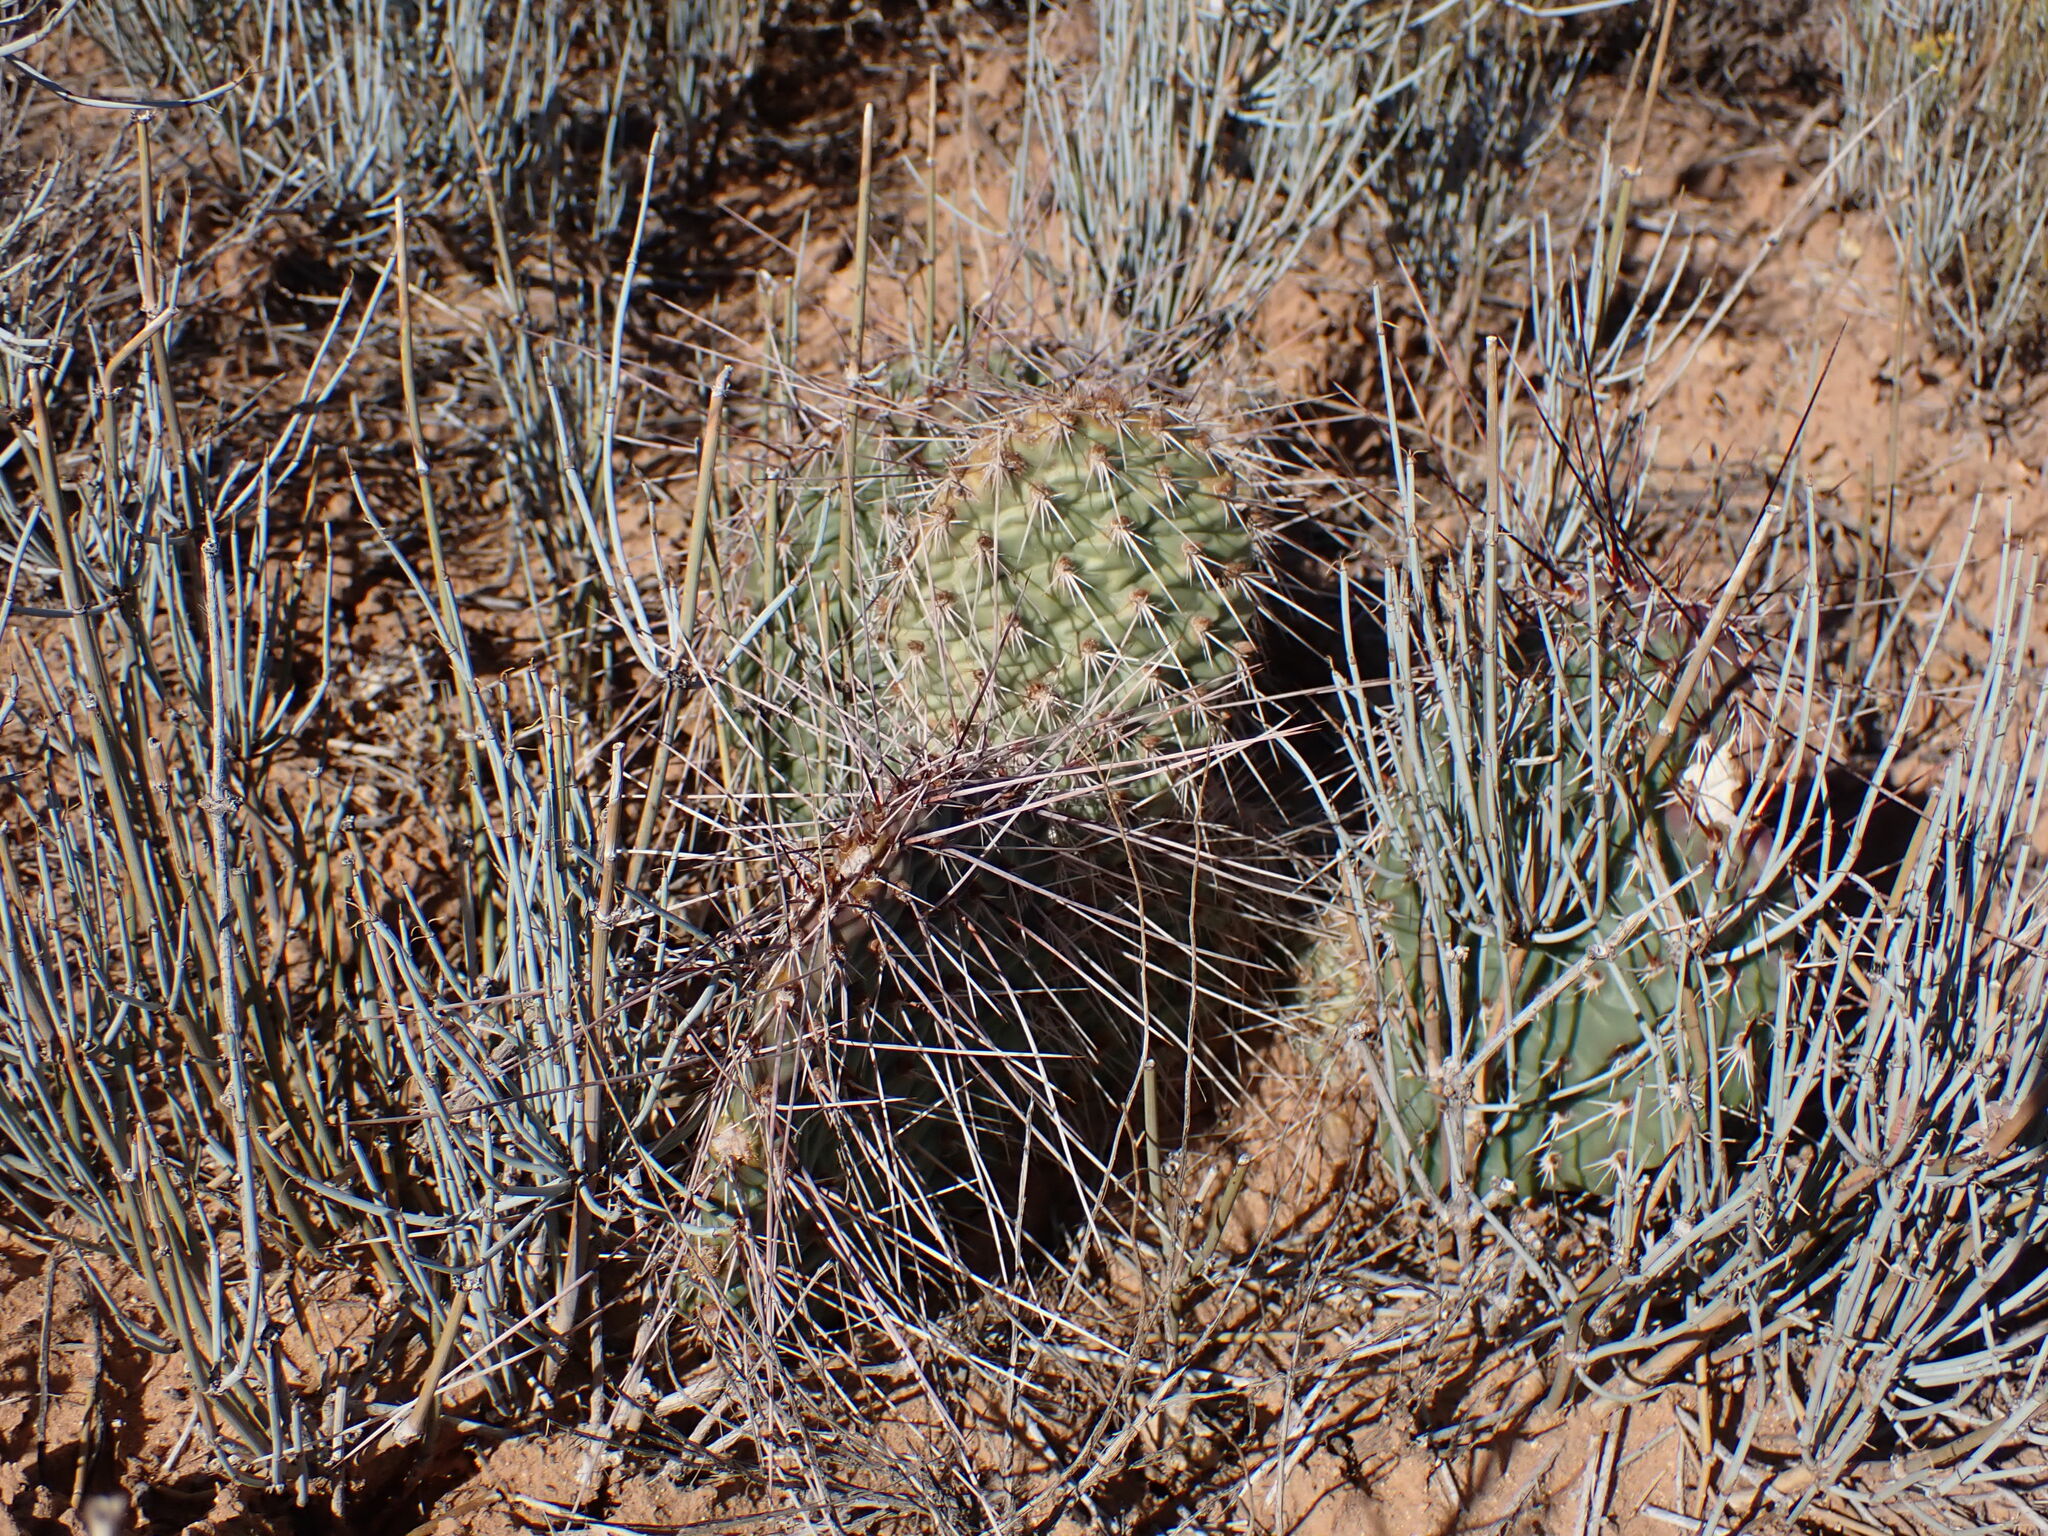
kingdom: Plantae
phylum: Tracheophyta
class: Magnoliopsida
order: Caryophyllales
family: Cactaceae
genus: Opuntia
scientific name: Opuntia polyacantha
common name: Plains prickly-pear
